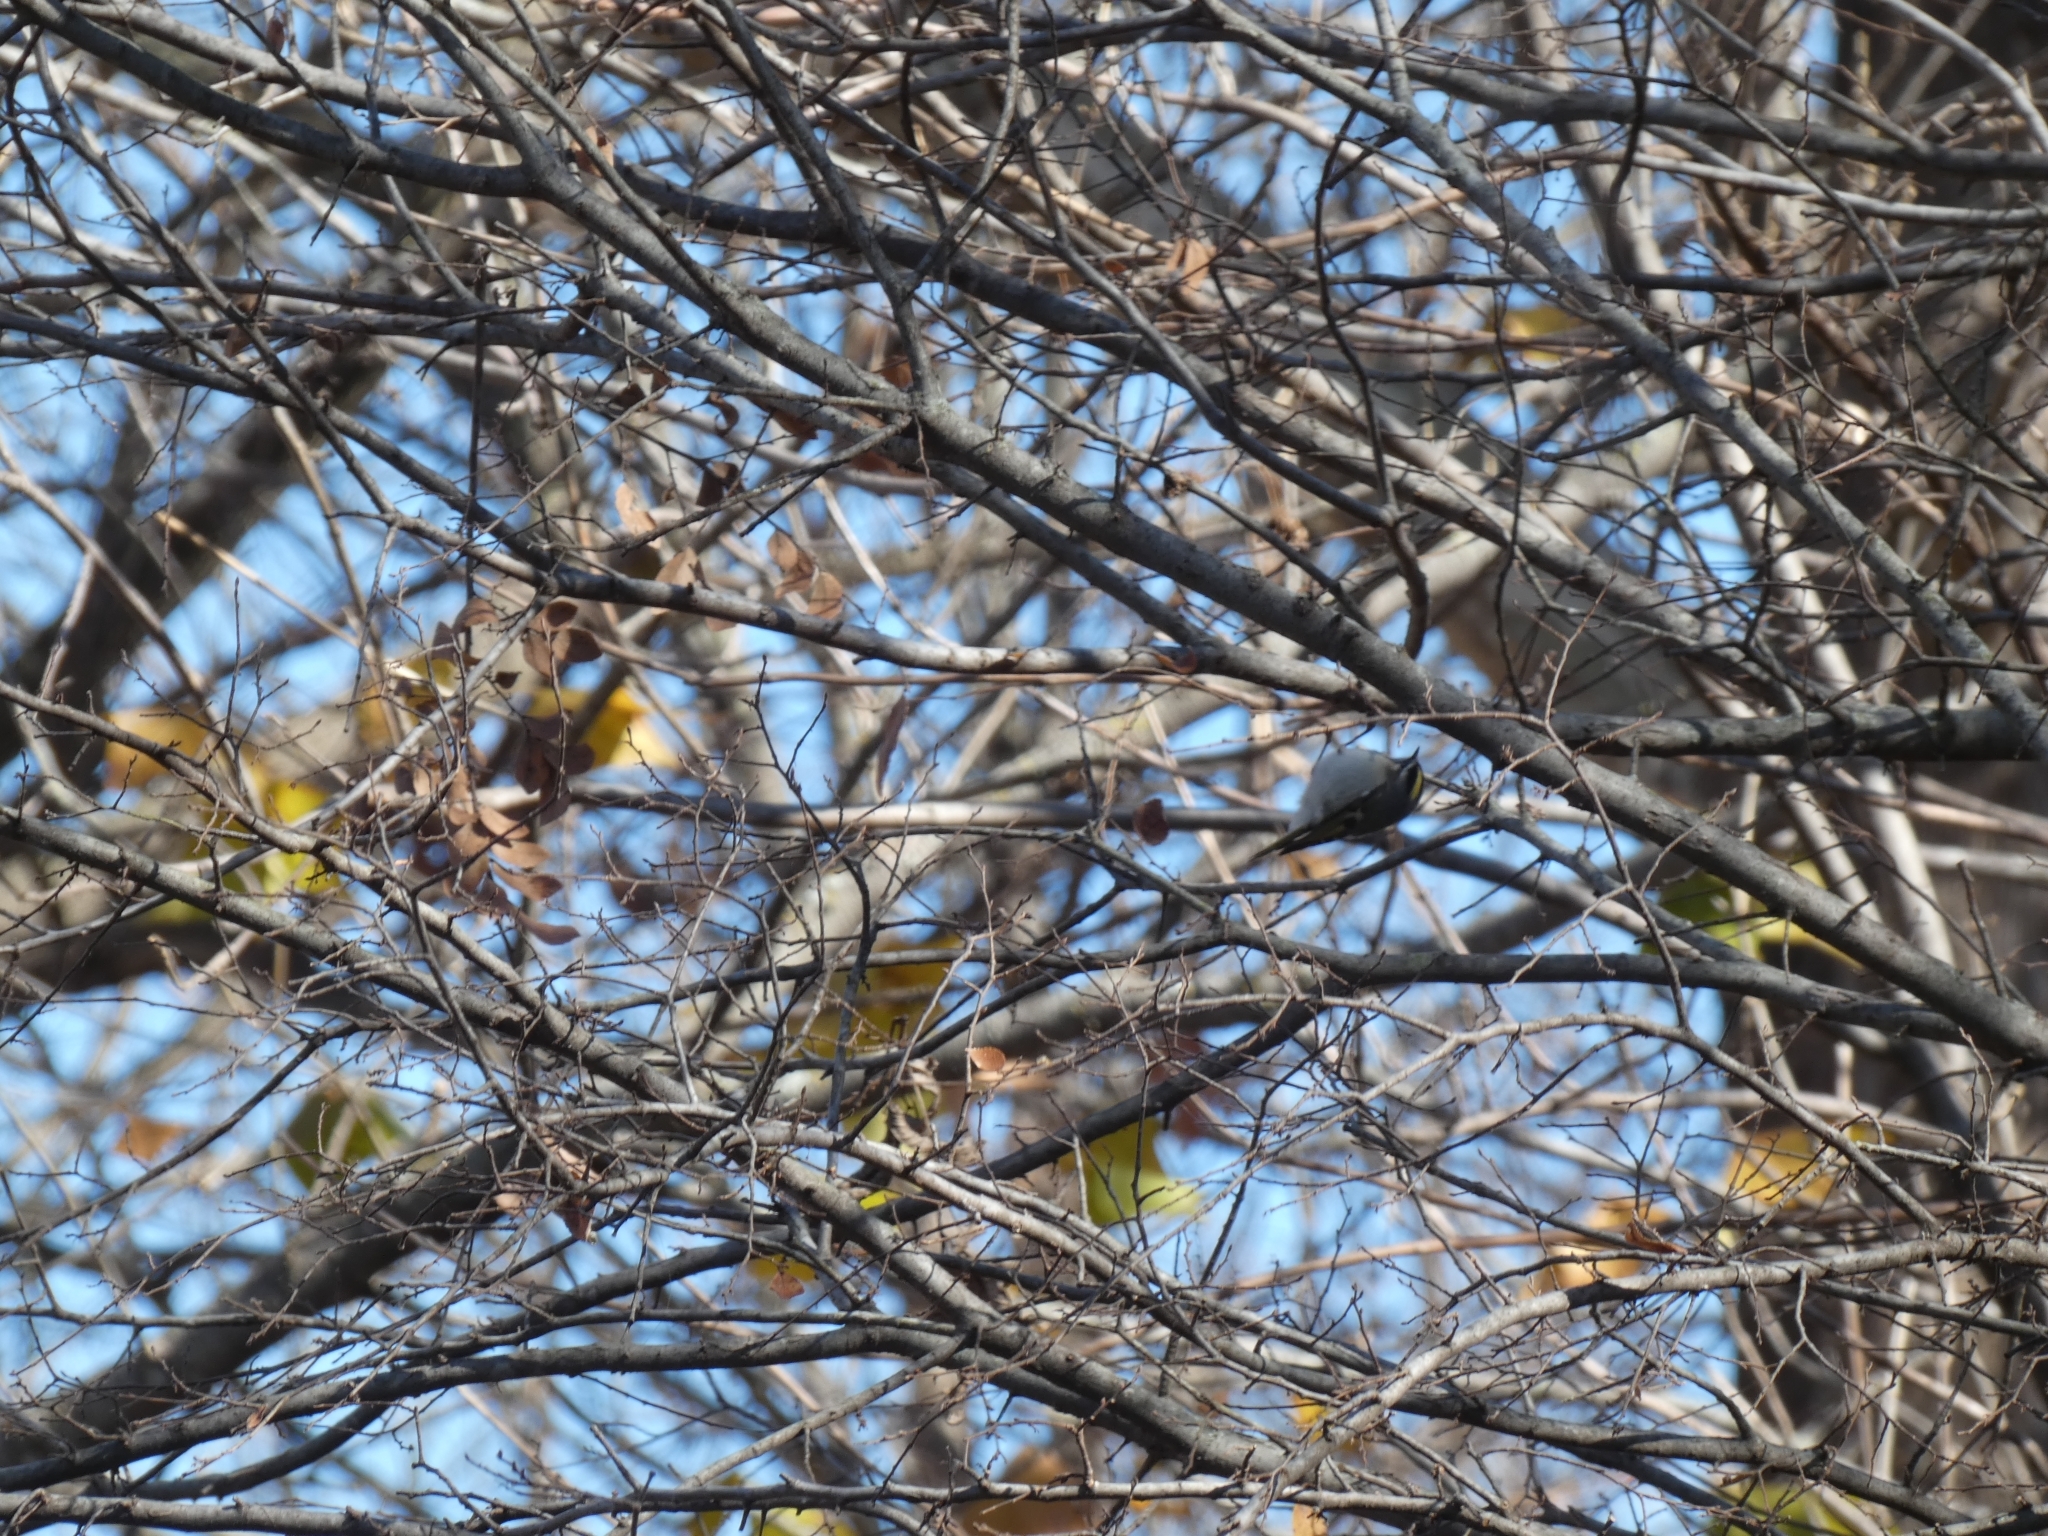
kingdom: Animalia
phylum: Chordata
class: Aves
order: Passeriformes
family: Regulidae
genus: Regulus
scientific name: Regulus satrapa
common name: Golden-crowned kinglet
